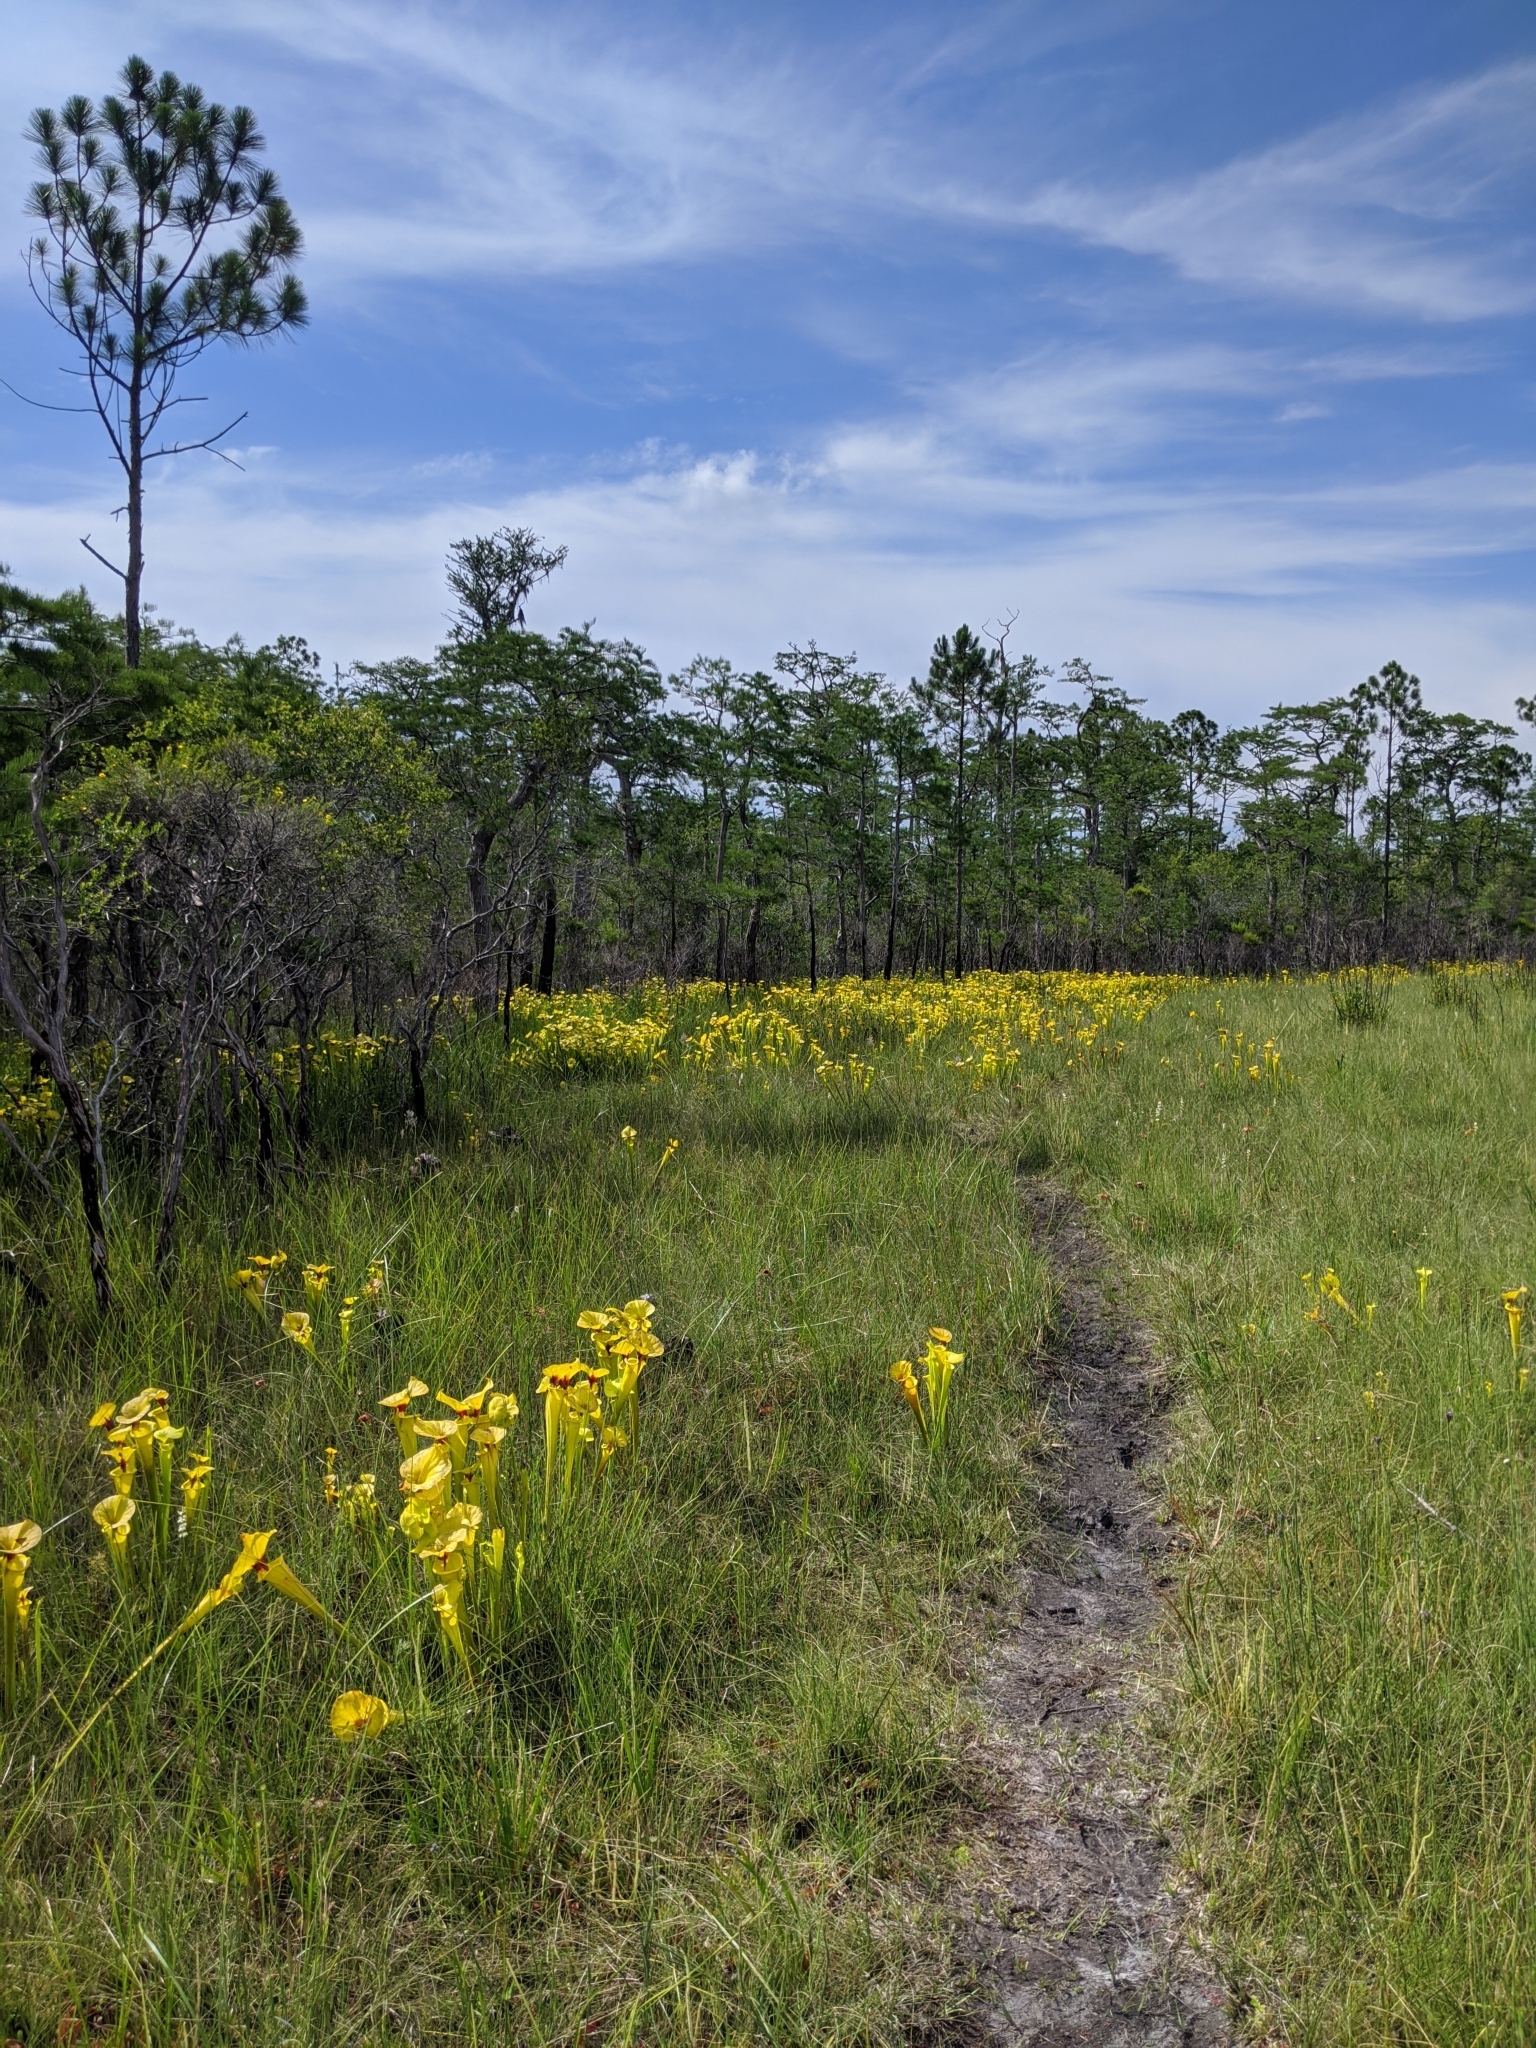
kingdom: Plantae
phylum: Tracheophyta
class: Magnoliopsida
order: Ericales
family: Sarraceniaceae
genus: Sarracenia
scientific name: Sarracenia flava
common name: Trumpets
